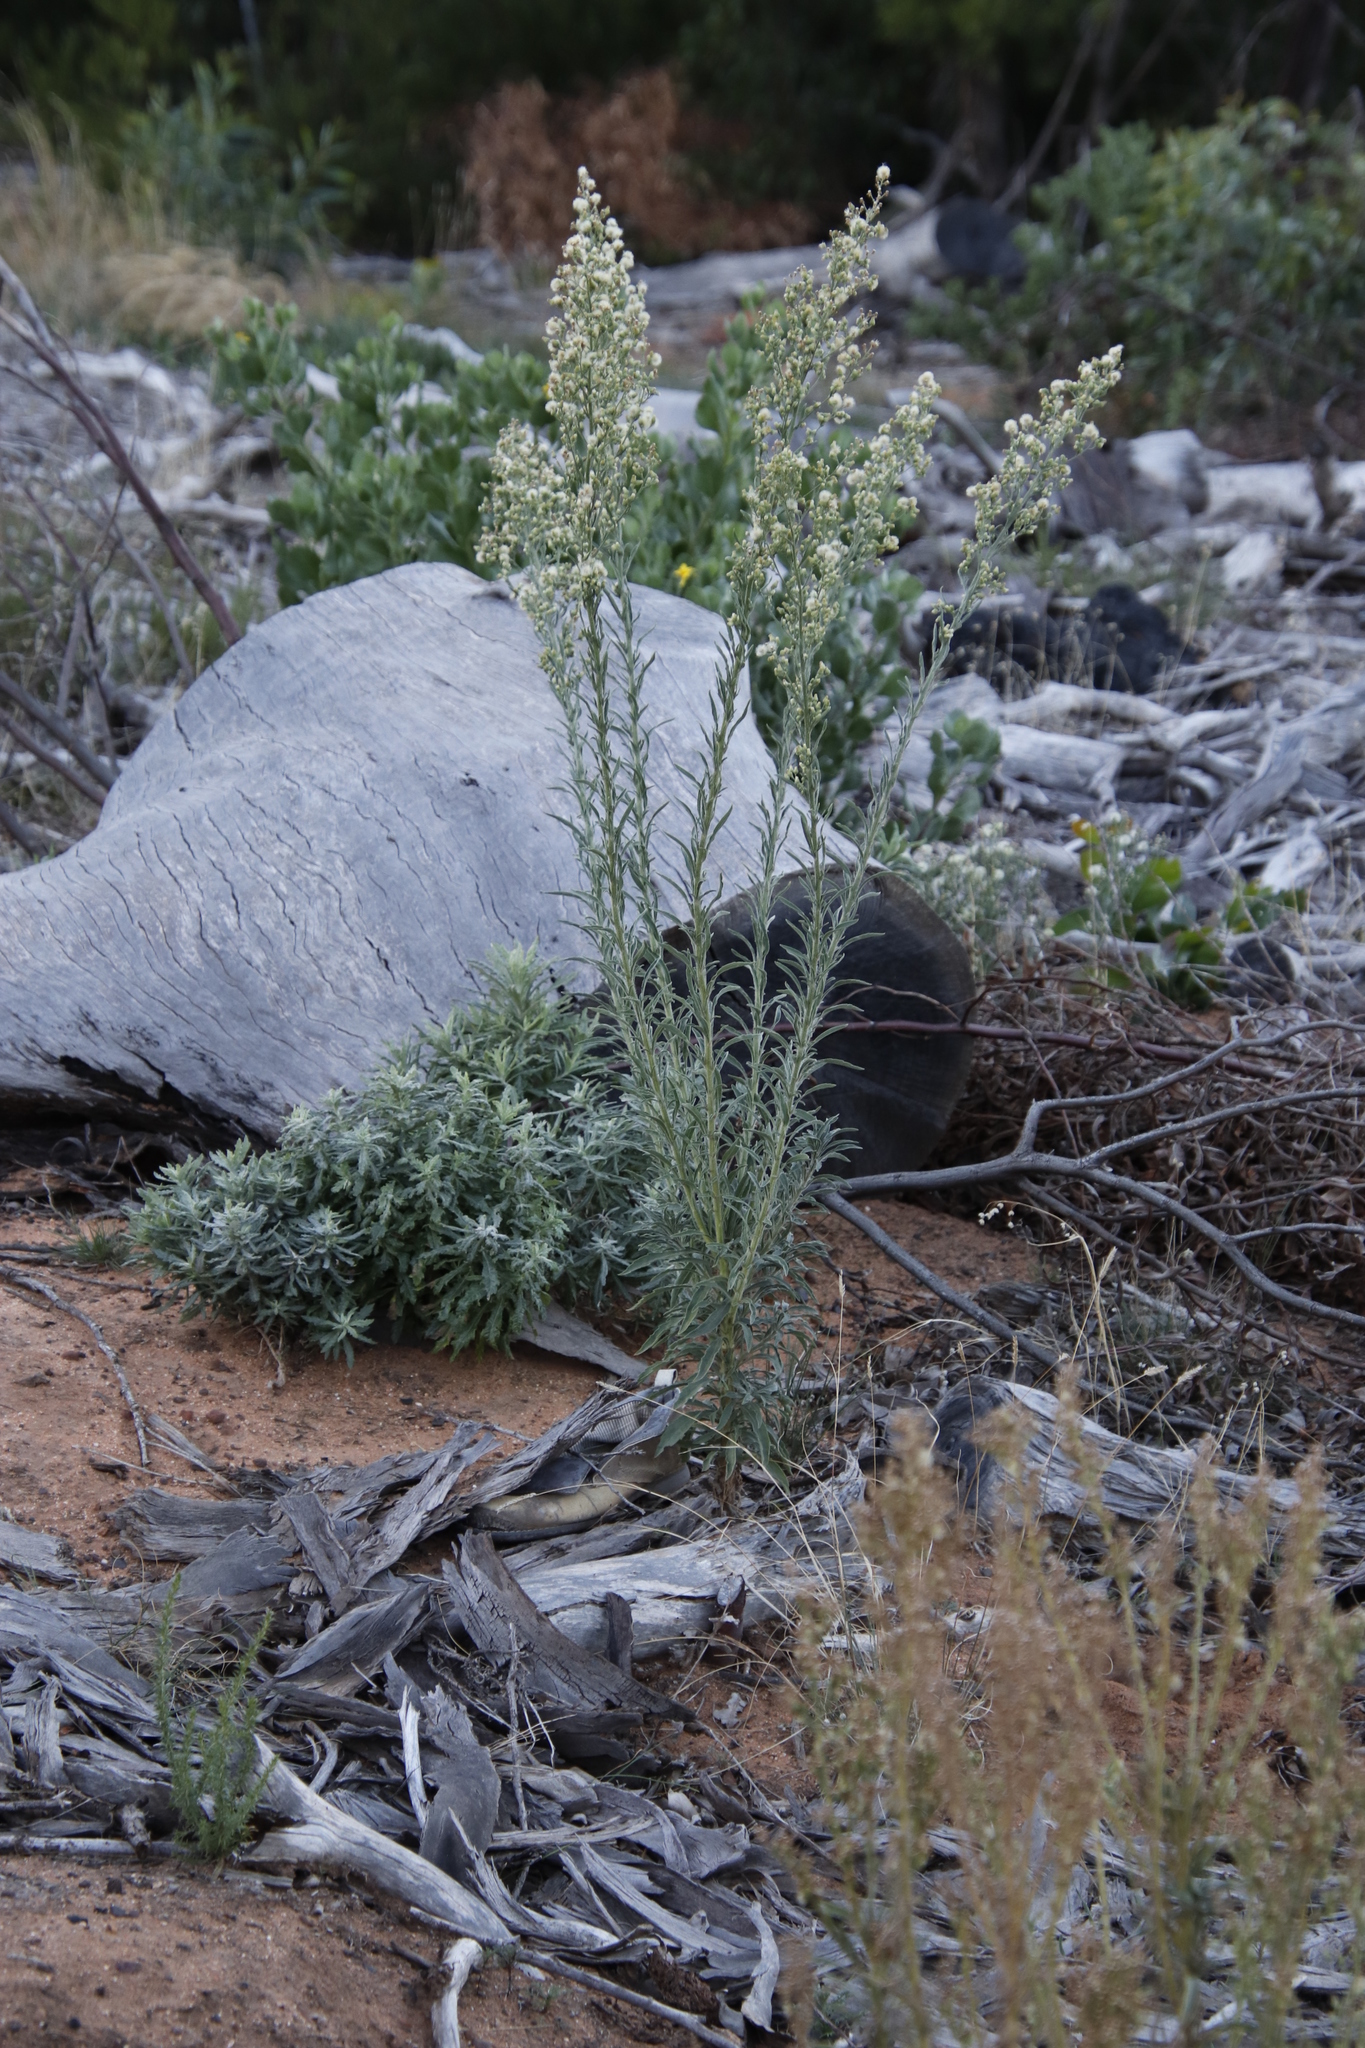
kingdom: Plantae
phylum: Tracheophyta
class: Magnoliopsida
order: Asterales
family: Asteraceae
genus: Erigeron
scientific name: Erigeron sumatrensis
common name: Daisy
